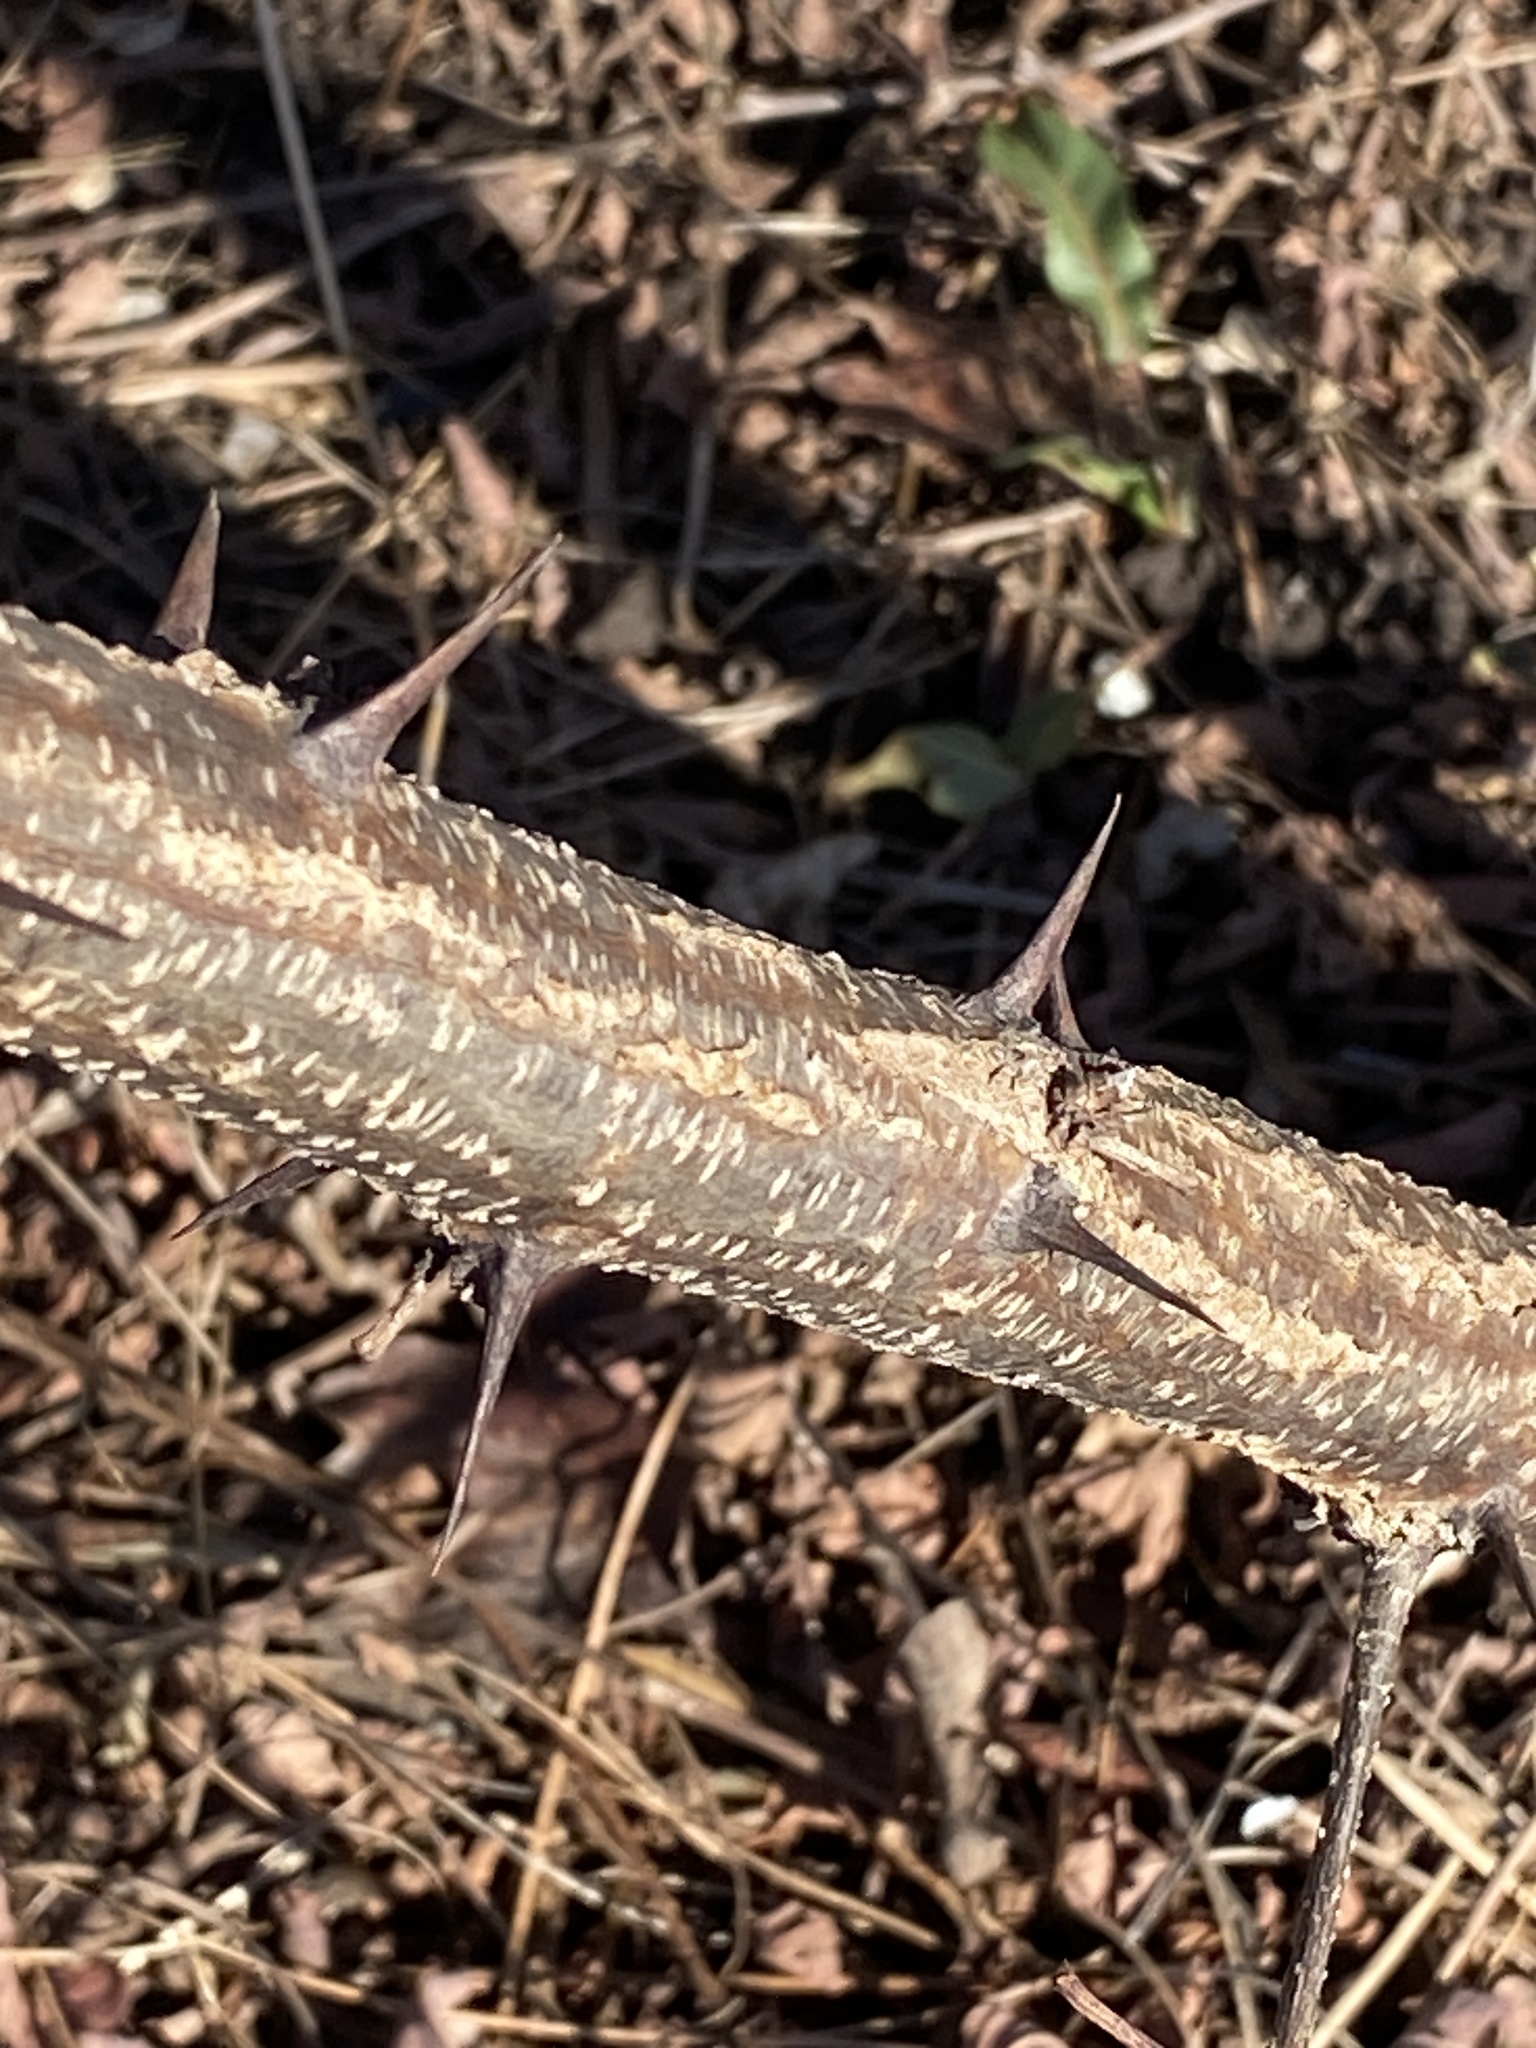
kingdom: Plantae
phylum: Tracheophyta
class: Magnoliopsida
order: Fabales
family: Fabaceae
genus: Robinia
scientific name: Robinia pseudoacacia
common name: Black locust
